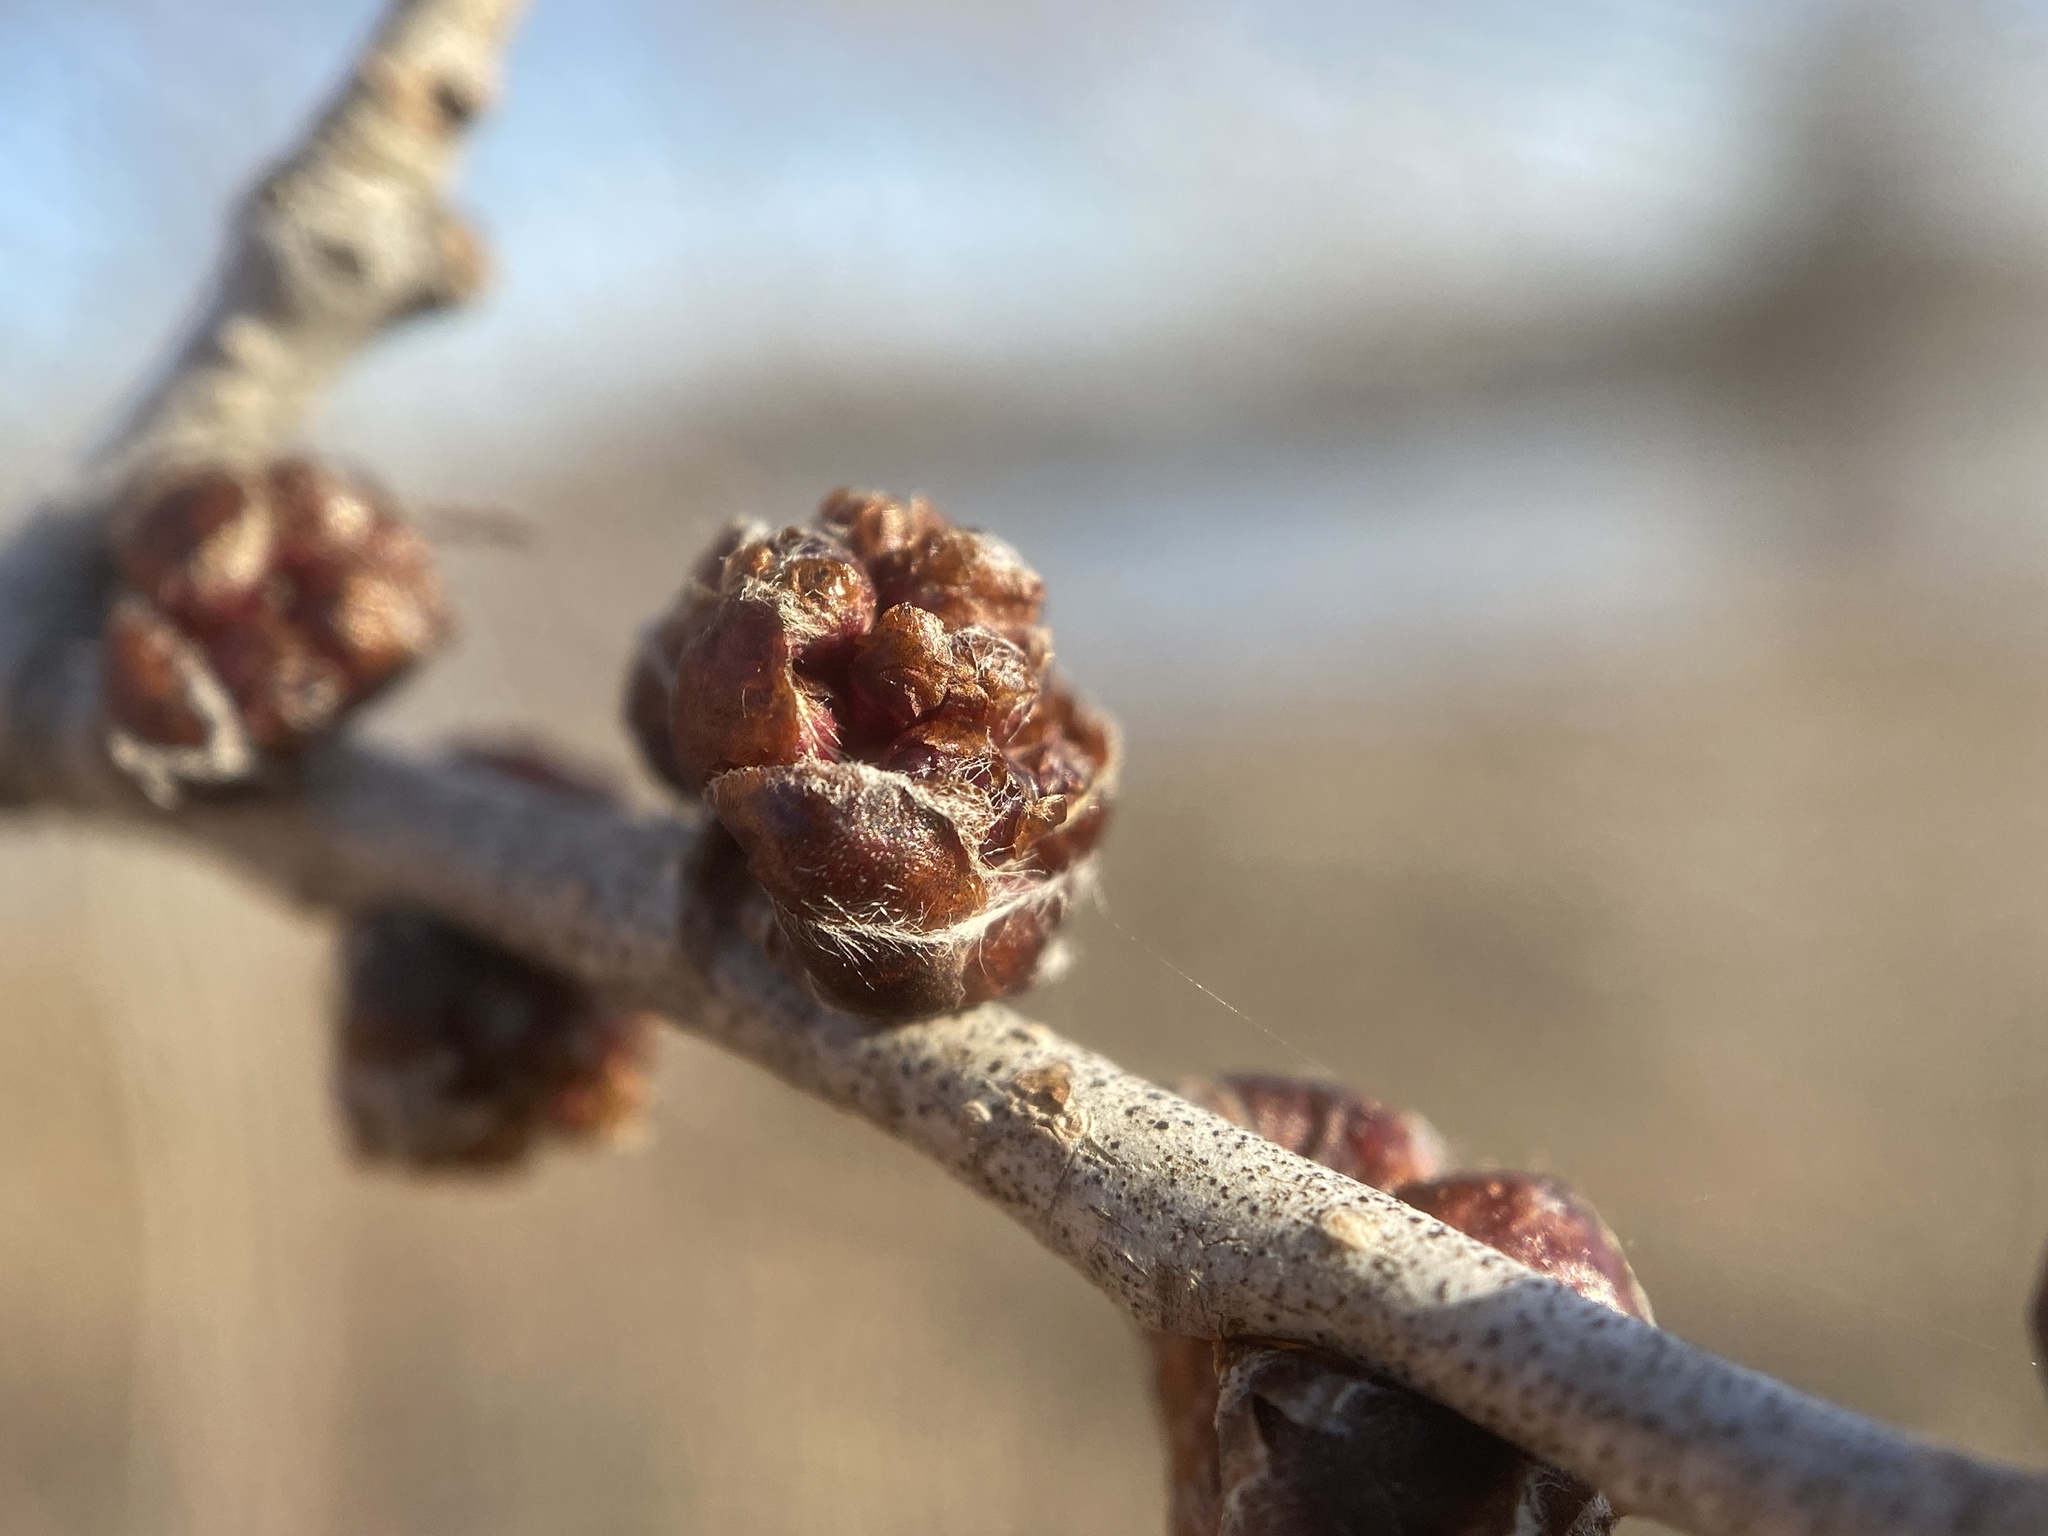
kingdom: Plantae
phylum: Tracheophyta
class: Magnoliopsida
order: Rosales
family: Ulmaceae
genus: Ulmus
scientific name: Ulmus pumila
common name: Siberian elm
